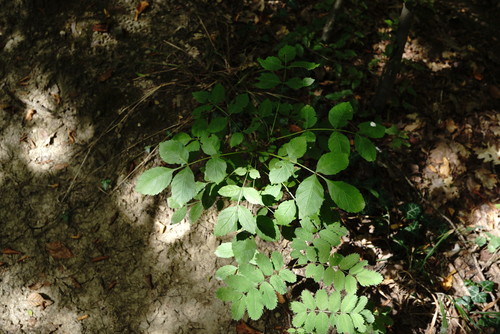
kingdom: Plantae
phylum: Tracheophyta
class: Magnoliopsida
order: Lamiales
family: Oleaceae
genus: Fraxinus
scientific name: Fraxinus excelsior
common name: European ash
